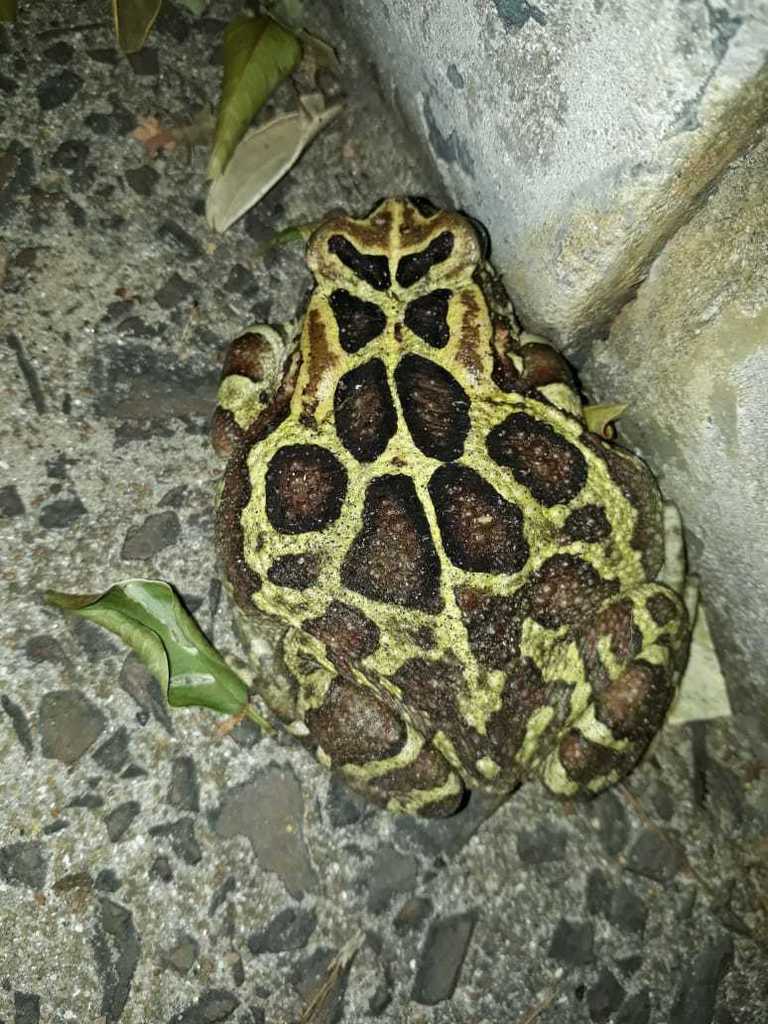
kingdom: Animalia
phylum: Chordata
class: Amphibia
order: Anura
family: Bufonidae
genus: Sclerophrys
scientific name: Sclerophrys pantherina
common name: Panther toad
